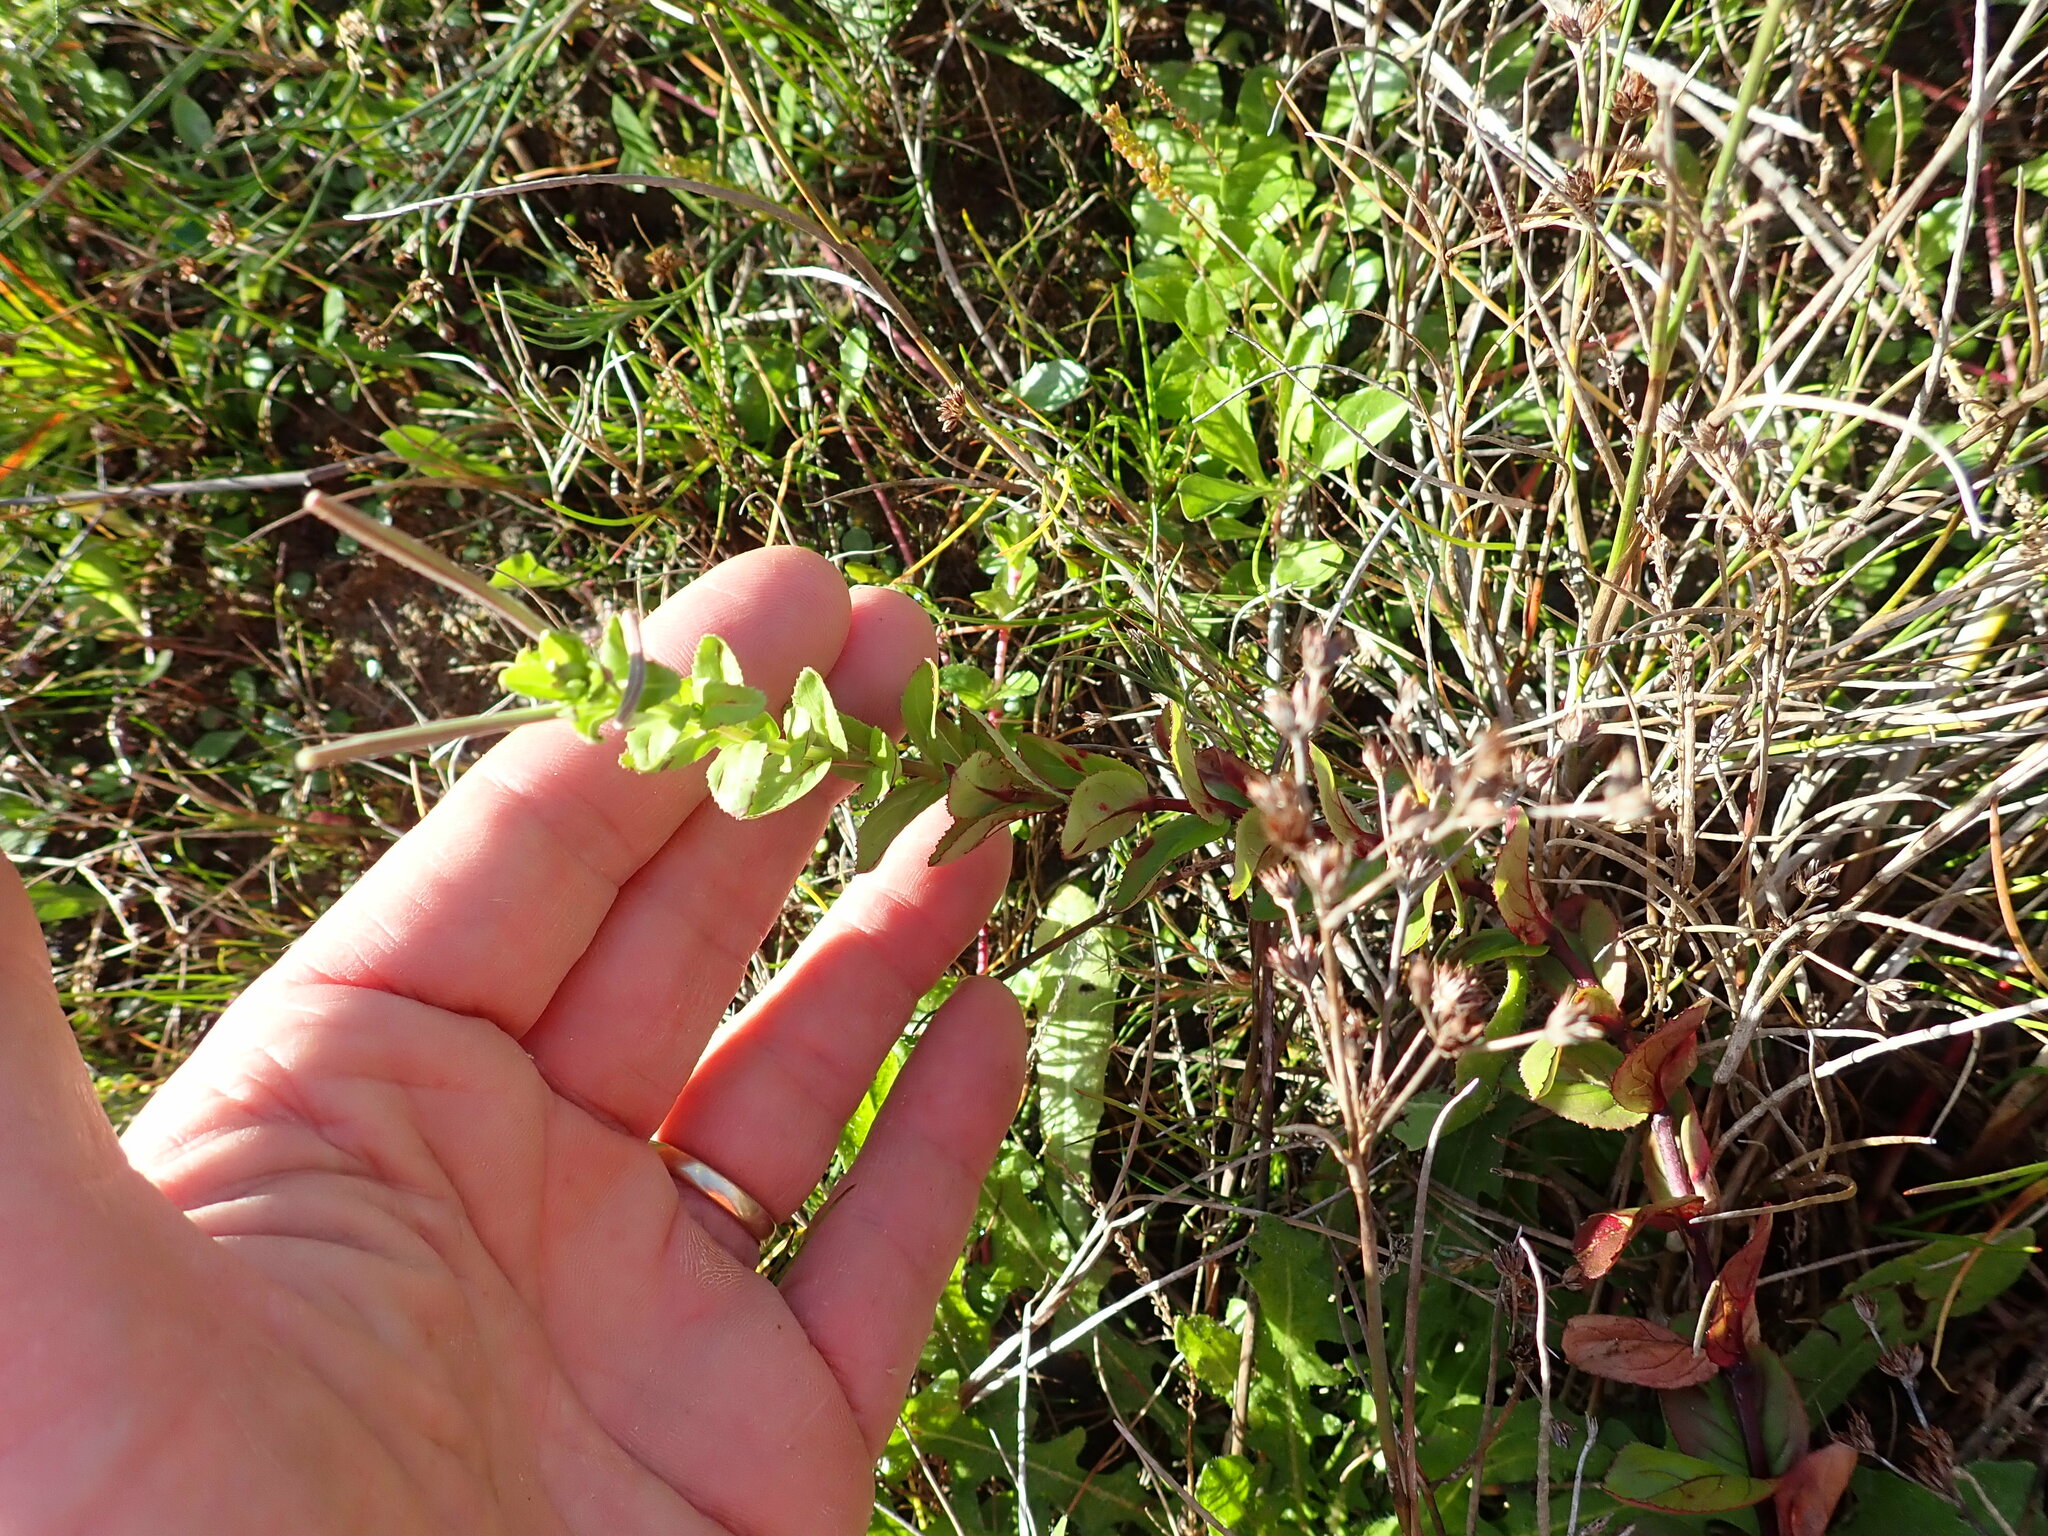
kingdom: Plantae
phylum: Tracheophyta
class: Magnoliopsida
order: Myrtales
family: Onagraceae
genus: Epilobium
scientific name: Epilobium billardiereanum
